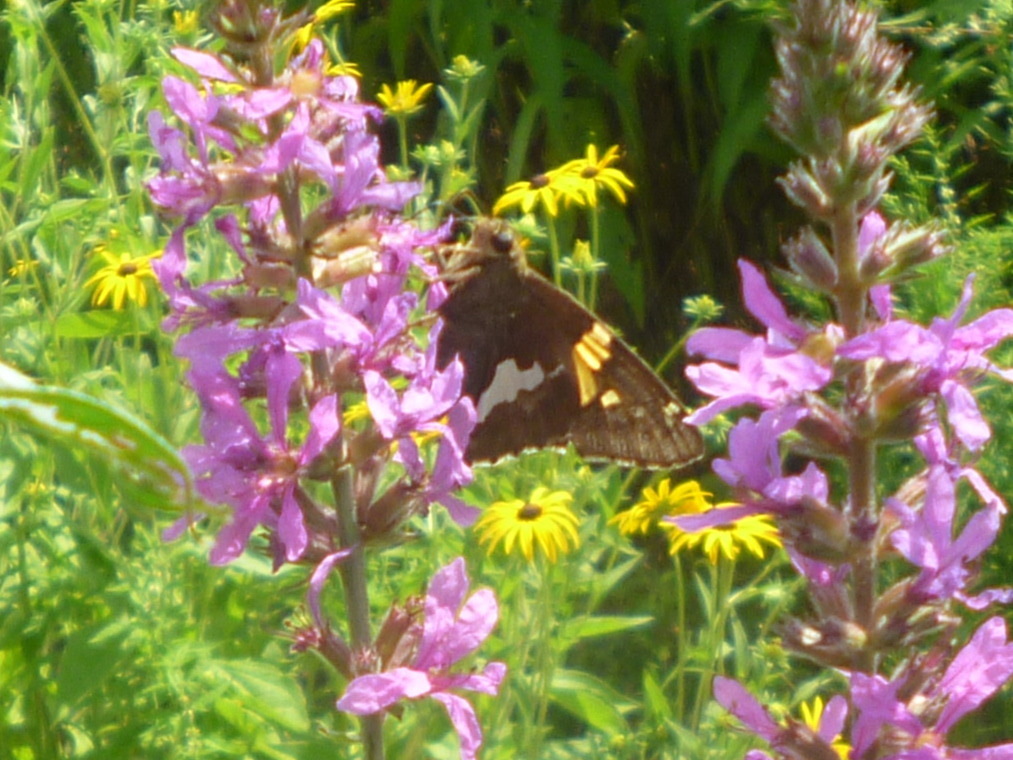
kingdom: Animalia
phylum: Arthropoda
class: Insecta
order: Lepidoptera
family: Hesperiidae
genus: Epargyreus
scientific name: Epargyreus clarus
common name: Silver-spotted skipper
